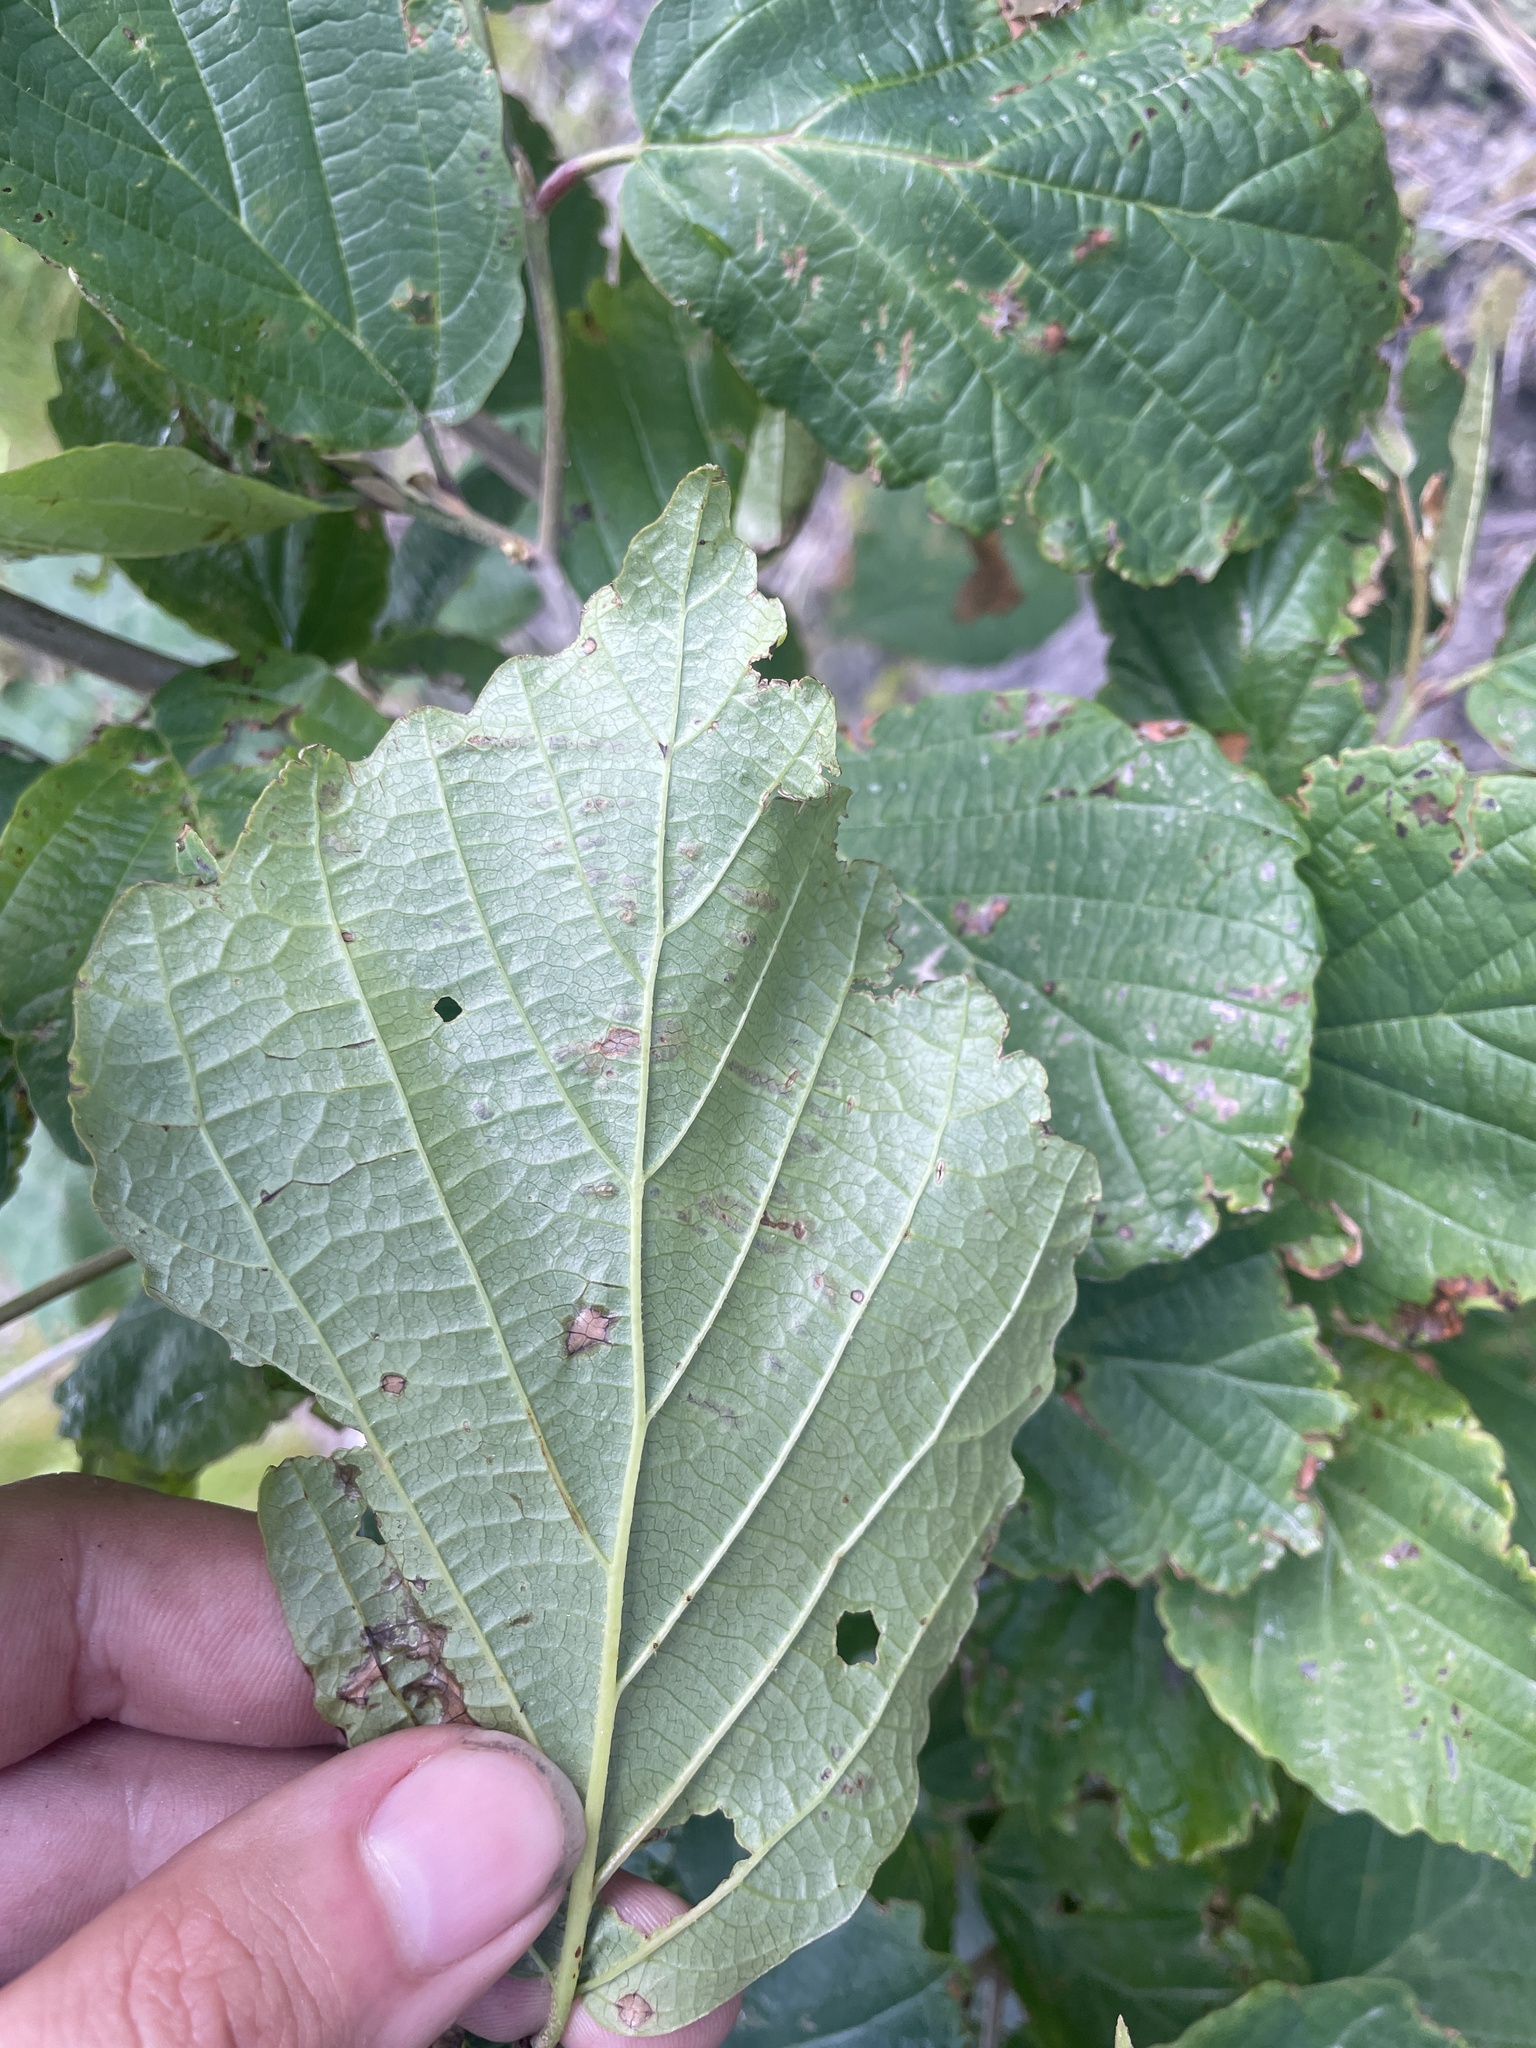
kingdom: Plantae
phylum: Tracheophyta
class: Magnoliopsida
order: Saxifragales
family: Hamamelidaceae
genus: Hamamelis
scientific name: Hamamelis virginiana
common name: Witch-hazel
